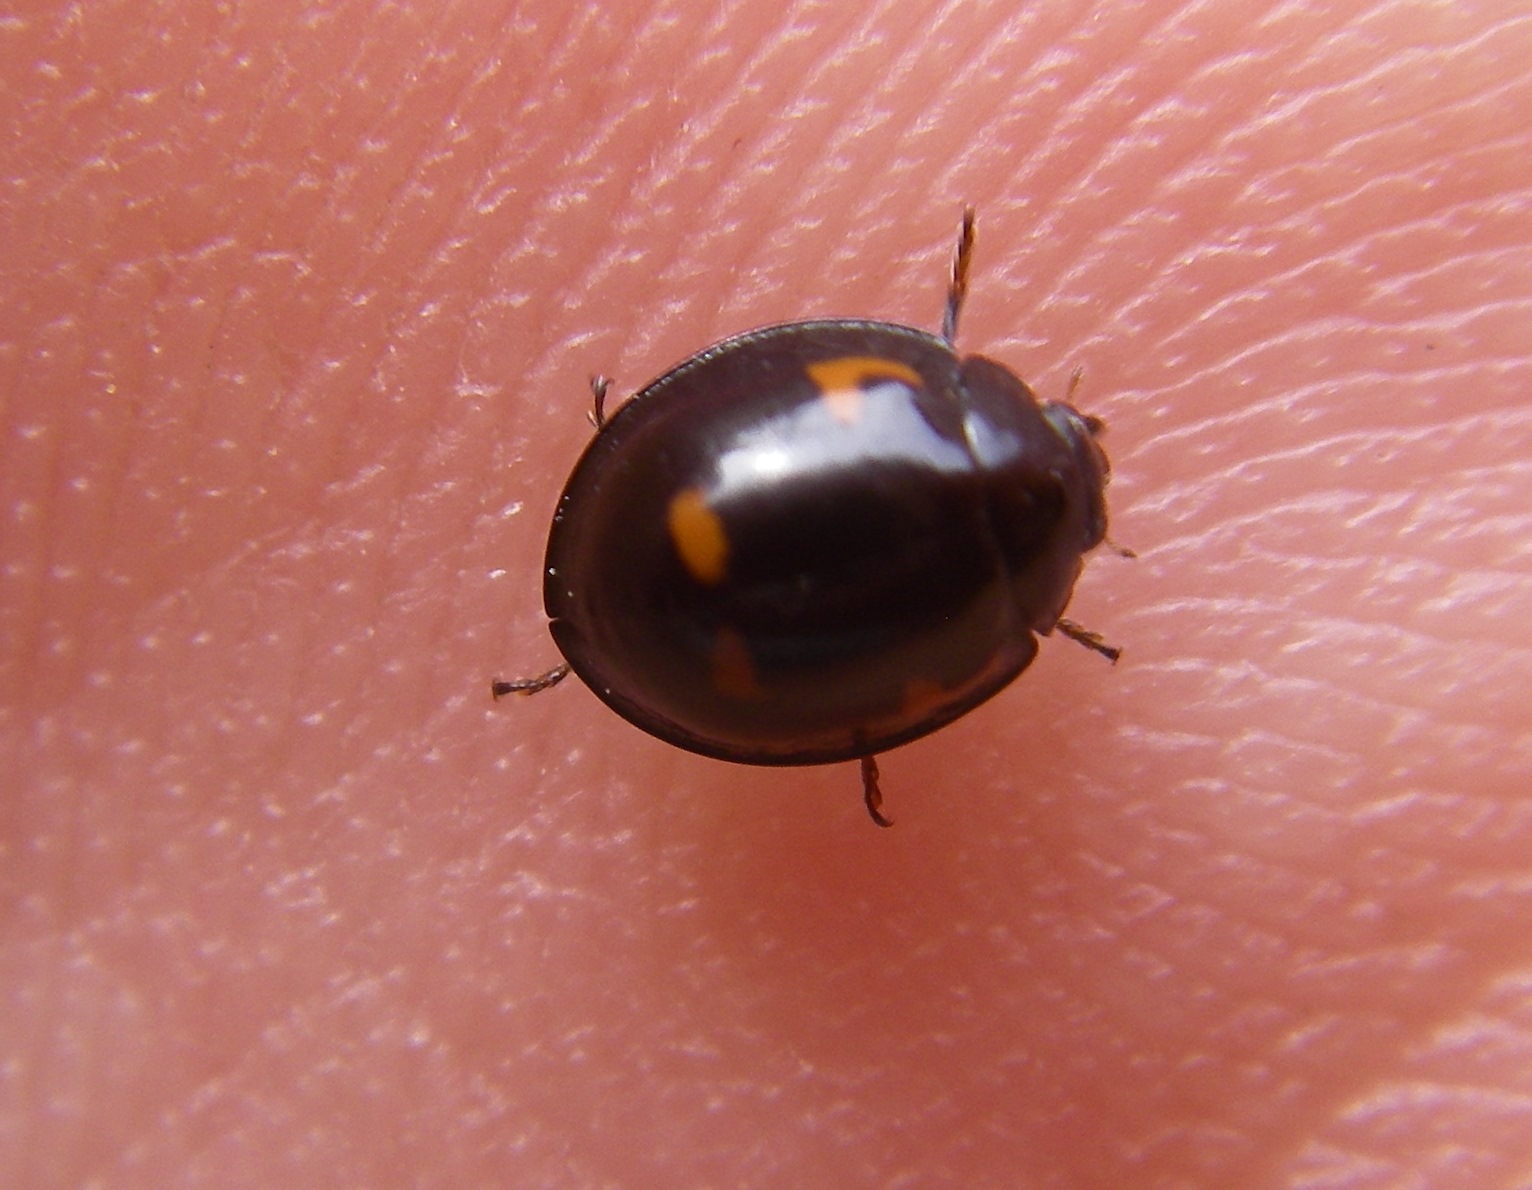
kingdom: Animalia
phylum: Arthropoda
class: Insecta
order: Coleoptera
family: Coccinellidae
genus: Brumus
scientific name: Brumus quadripustulatus
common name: Ladybird beetle
